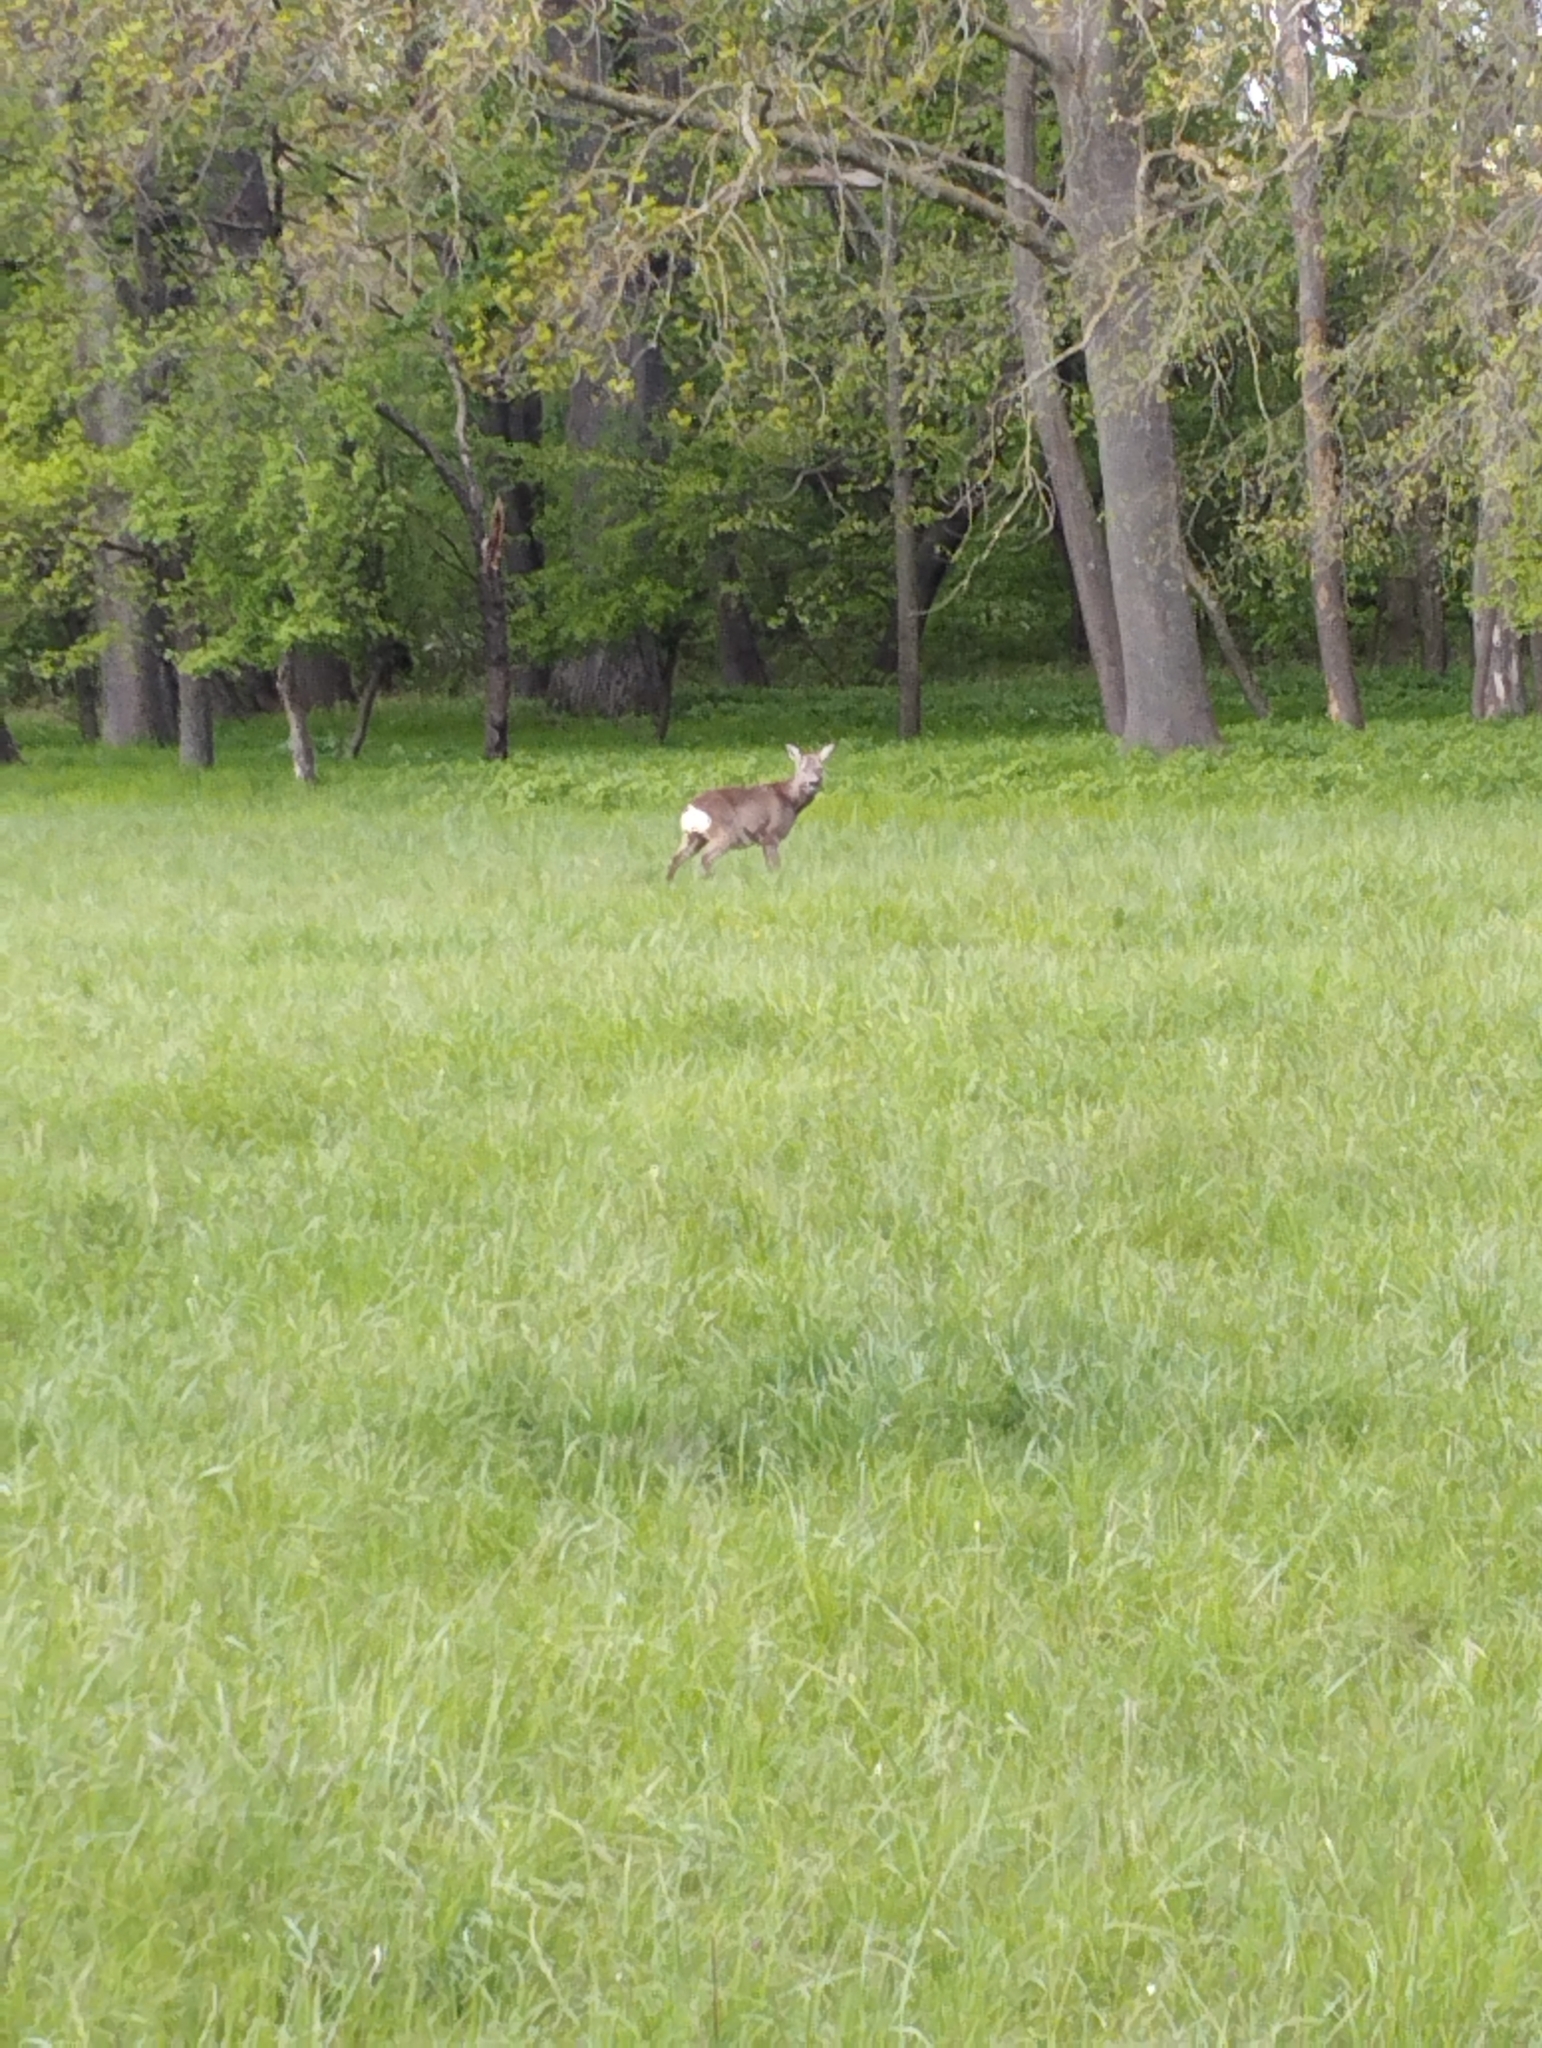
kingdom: Animalia
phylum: Chordata
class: Mammalia
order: Artiodactyla
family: Cervidae
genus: Capreolus
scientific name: Capreolus capreolus
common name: Western roe deer
